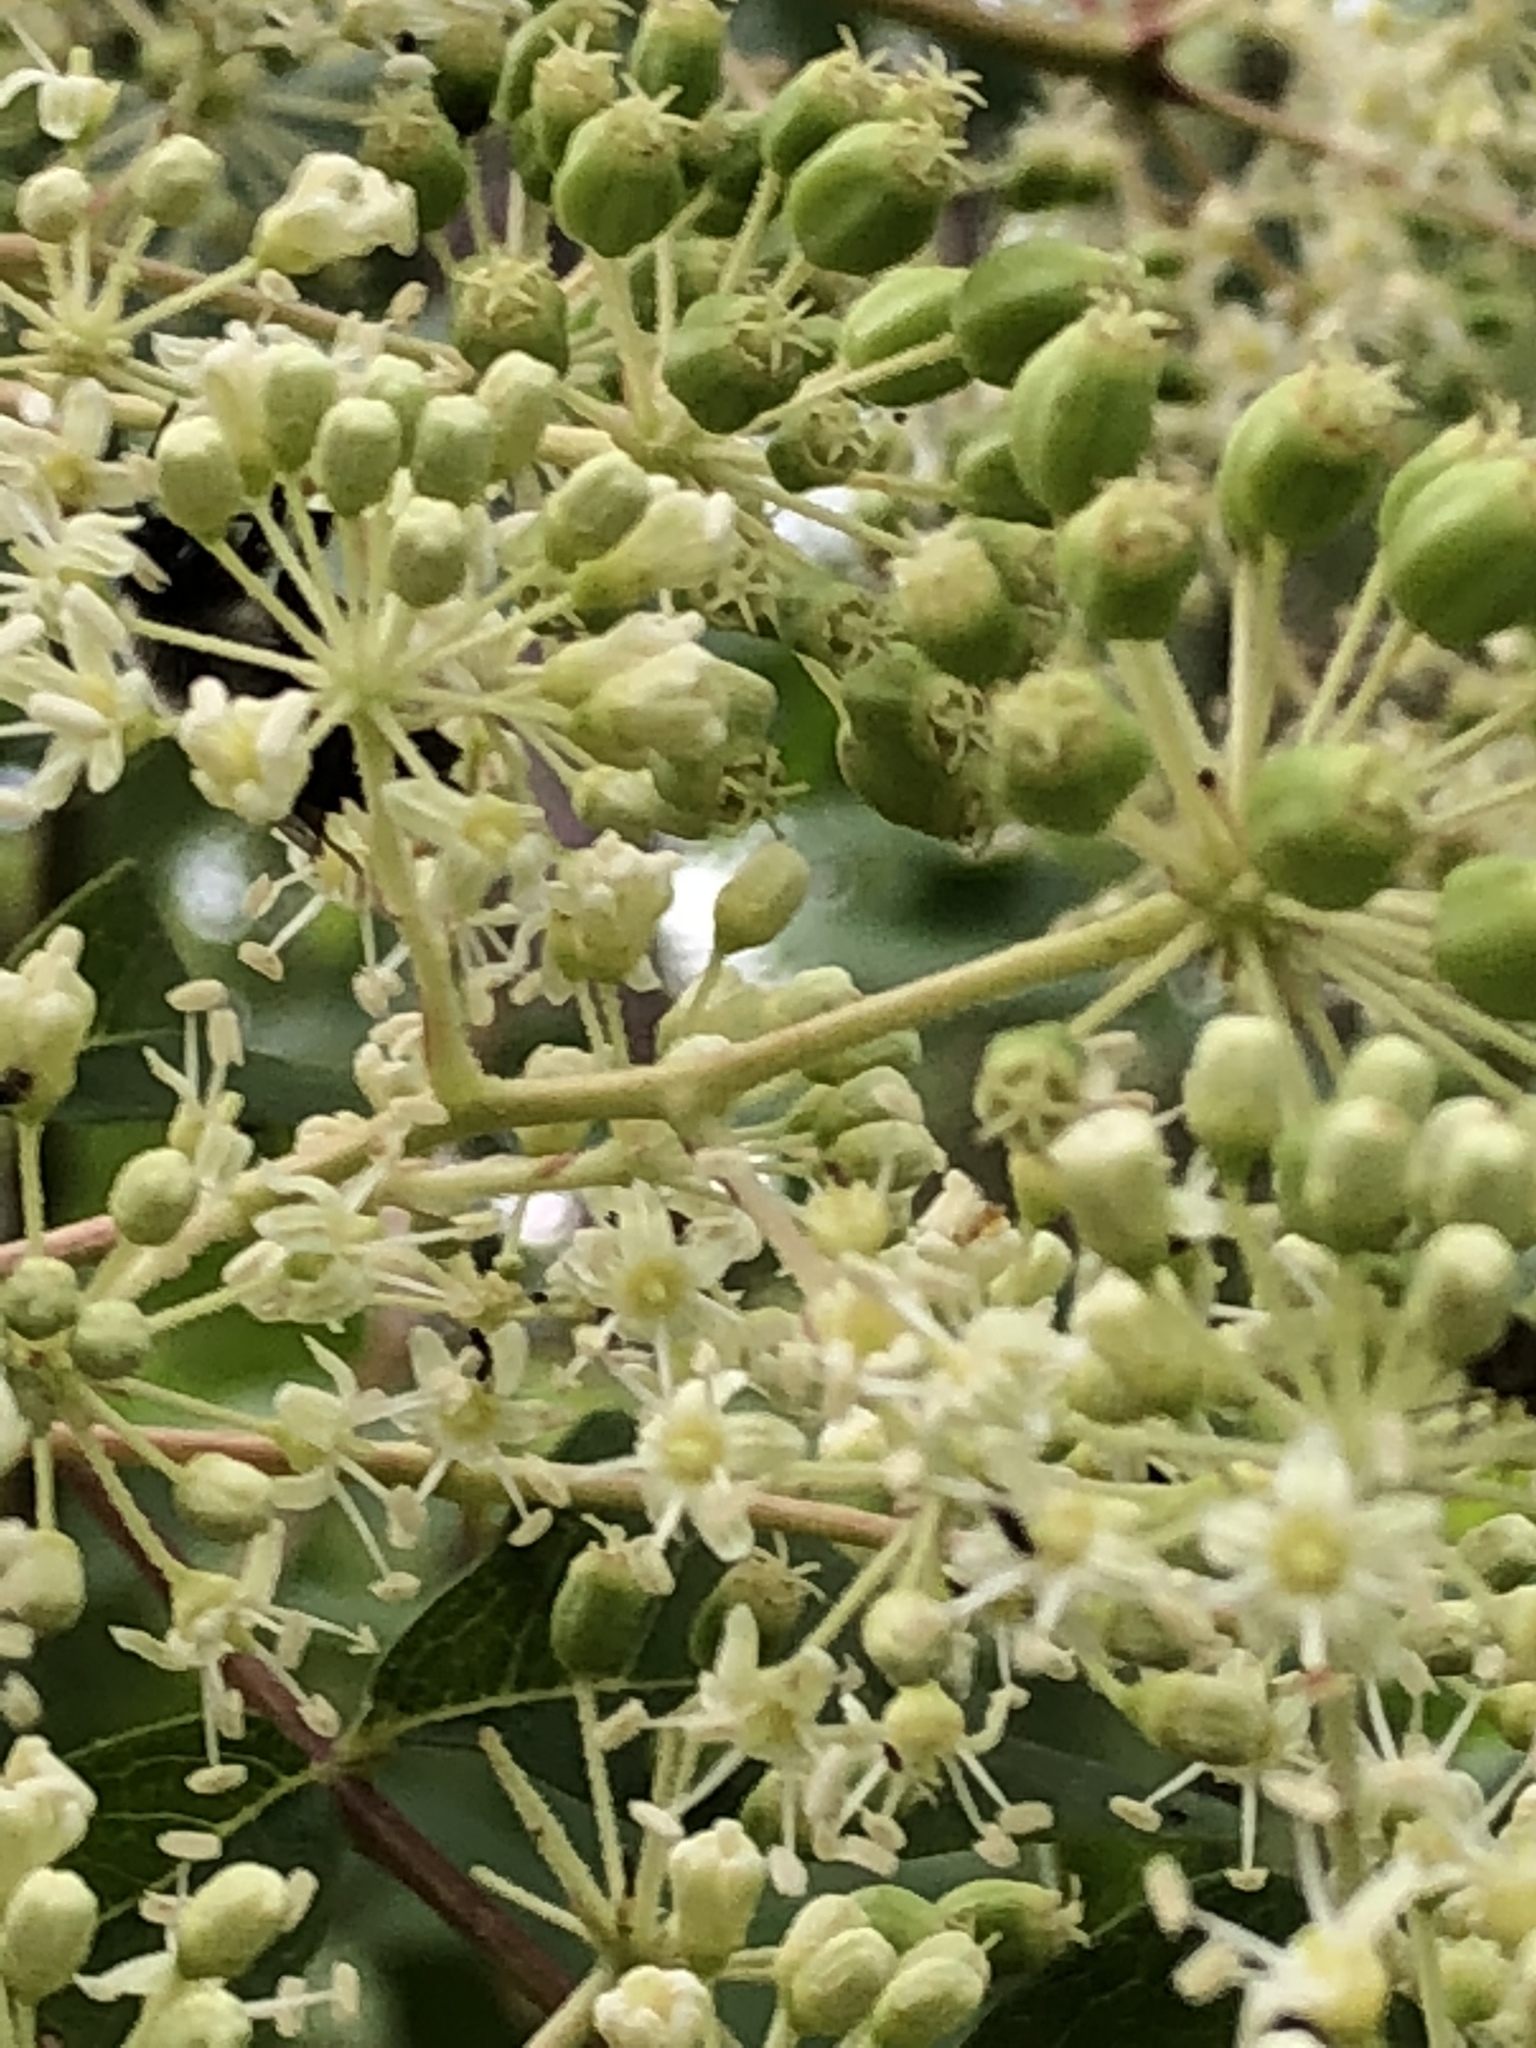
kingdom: Plantae
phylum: Tracheophyta
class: Magnoliopsida
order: Apiales
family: Araliaceae
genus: Aralia
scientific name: Aralia spinosa
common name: Hercules'-club
